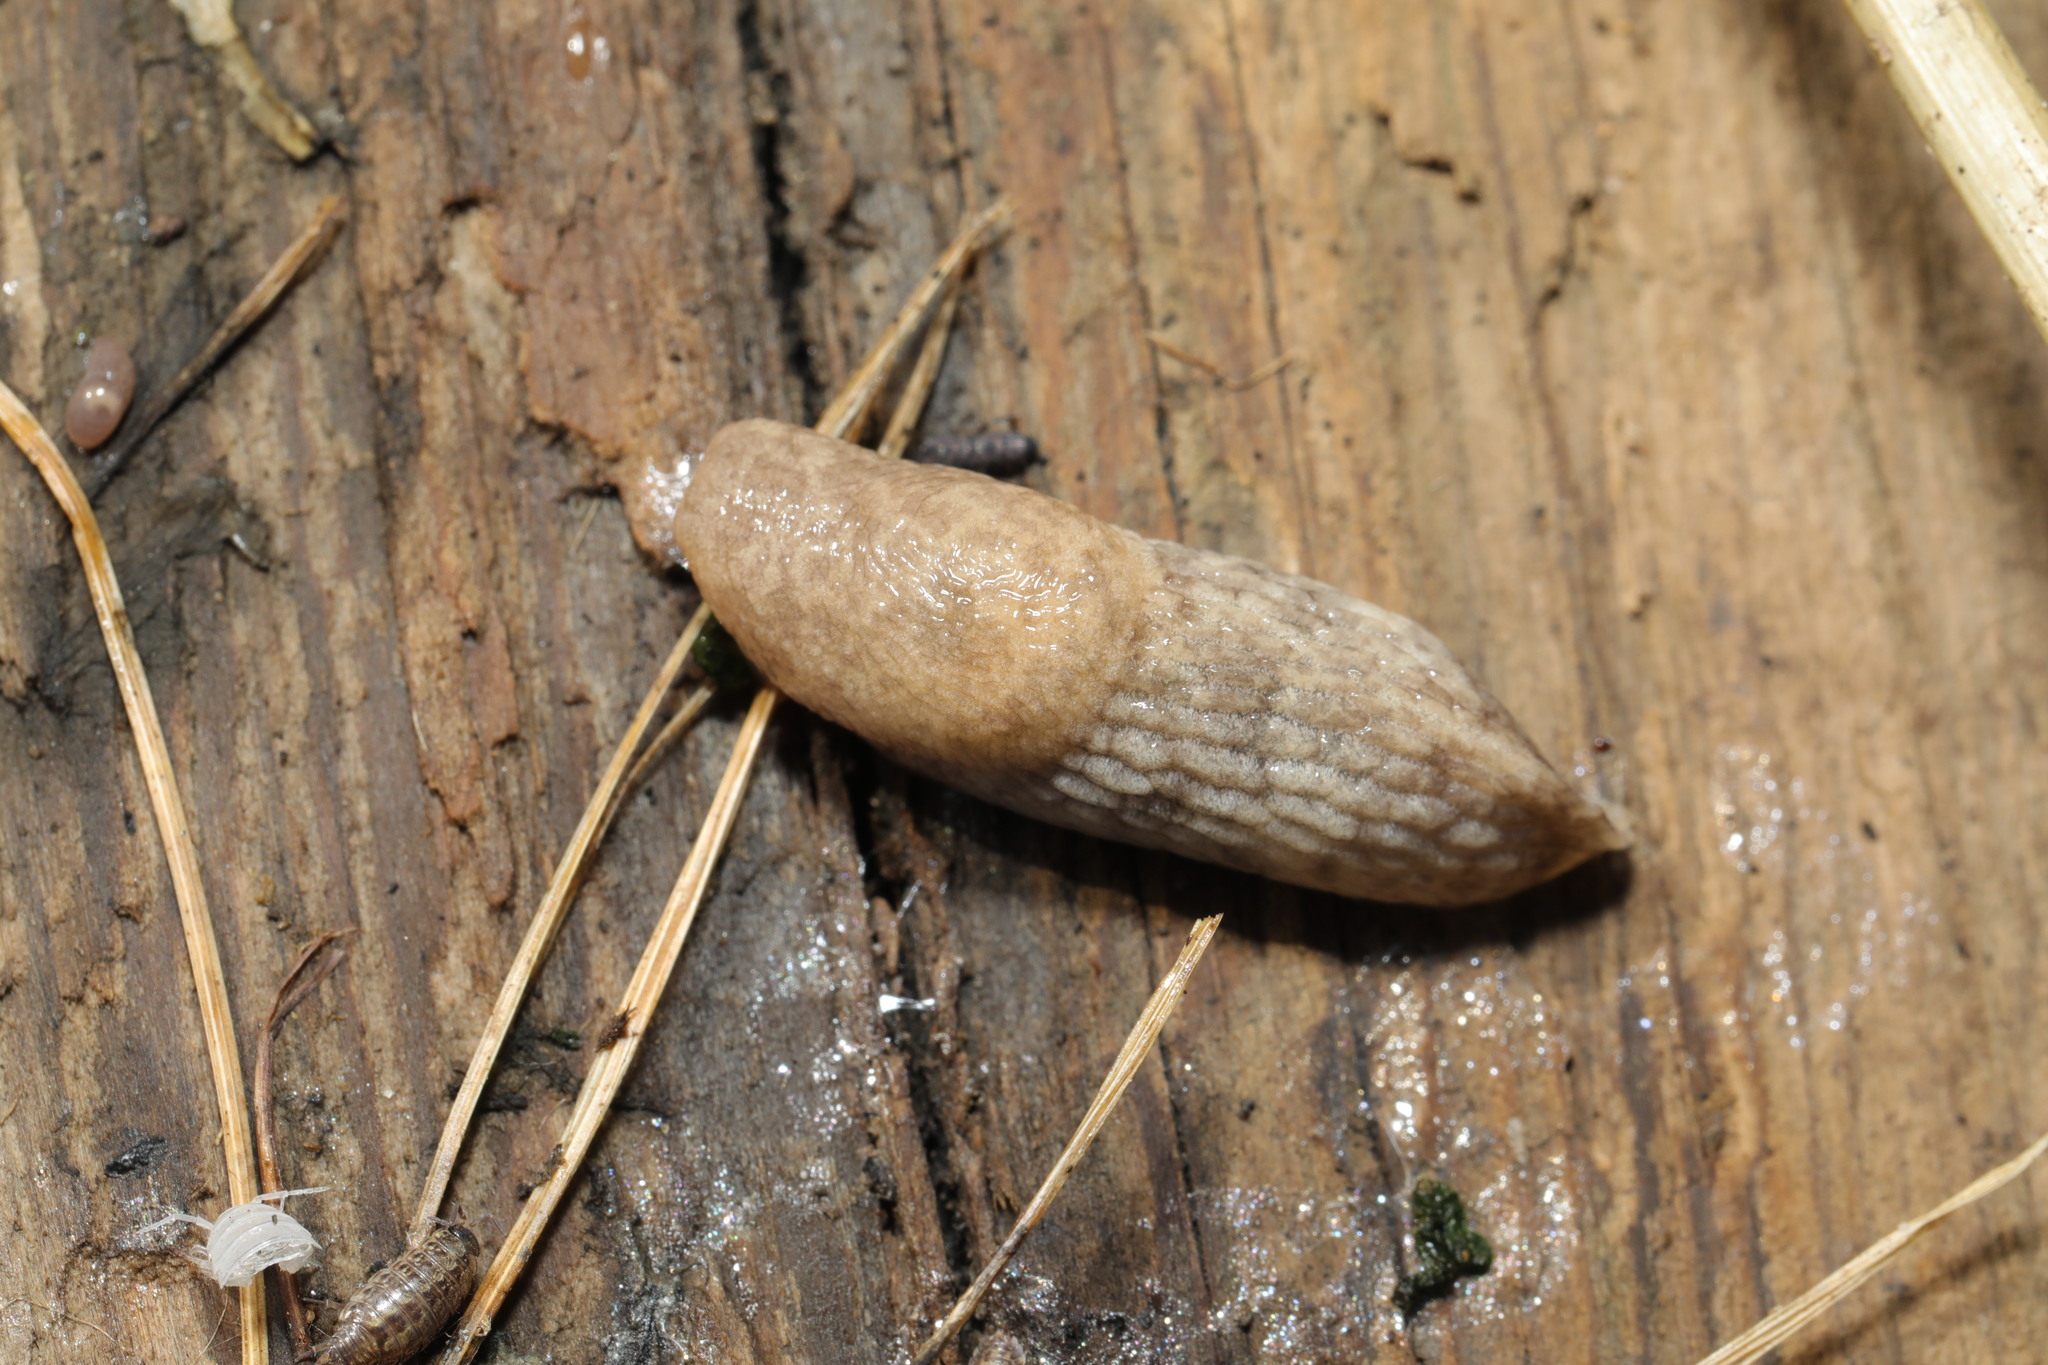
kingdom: Animalia
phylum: Mollusca
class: Gastropoda
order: Stylommatophora
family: Agriolimacidae
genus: Deroceras
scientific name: Deroceras reticulatum
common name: Gray field slug
